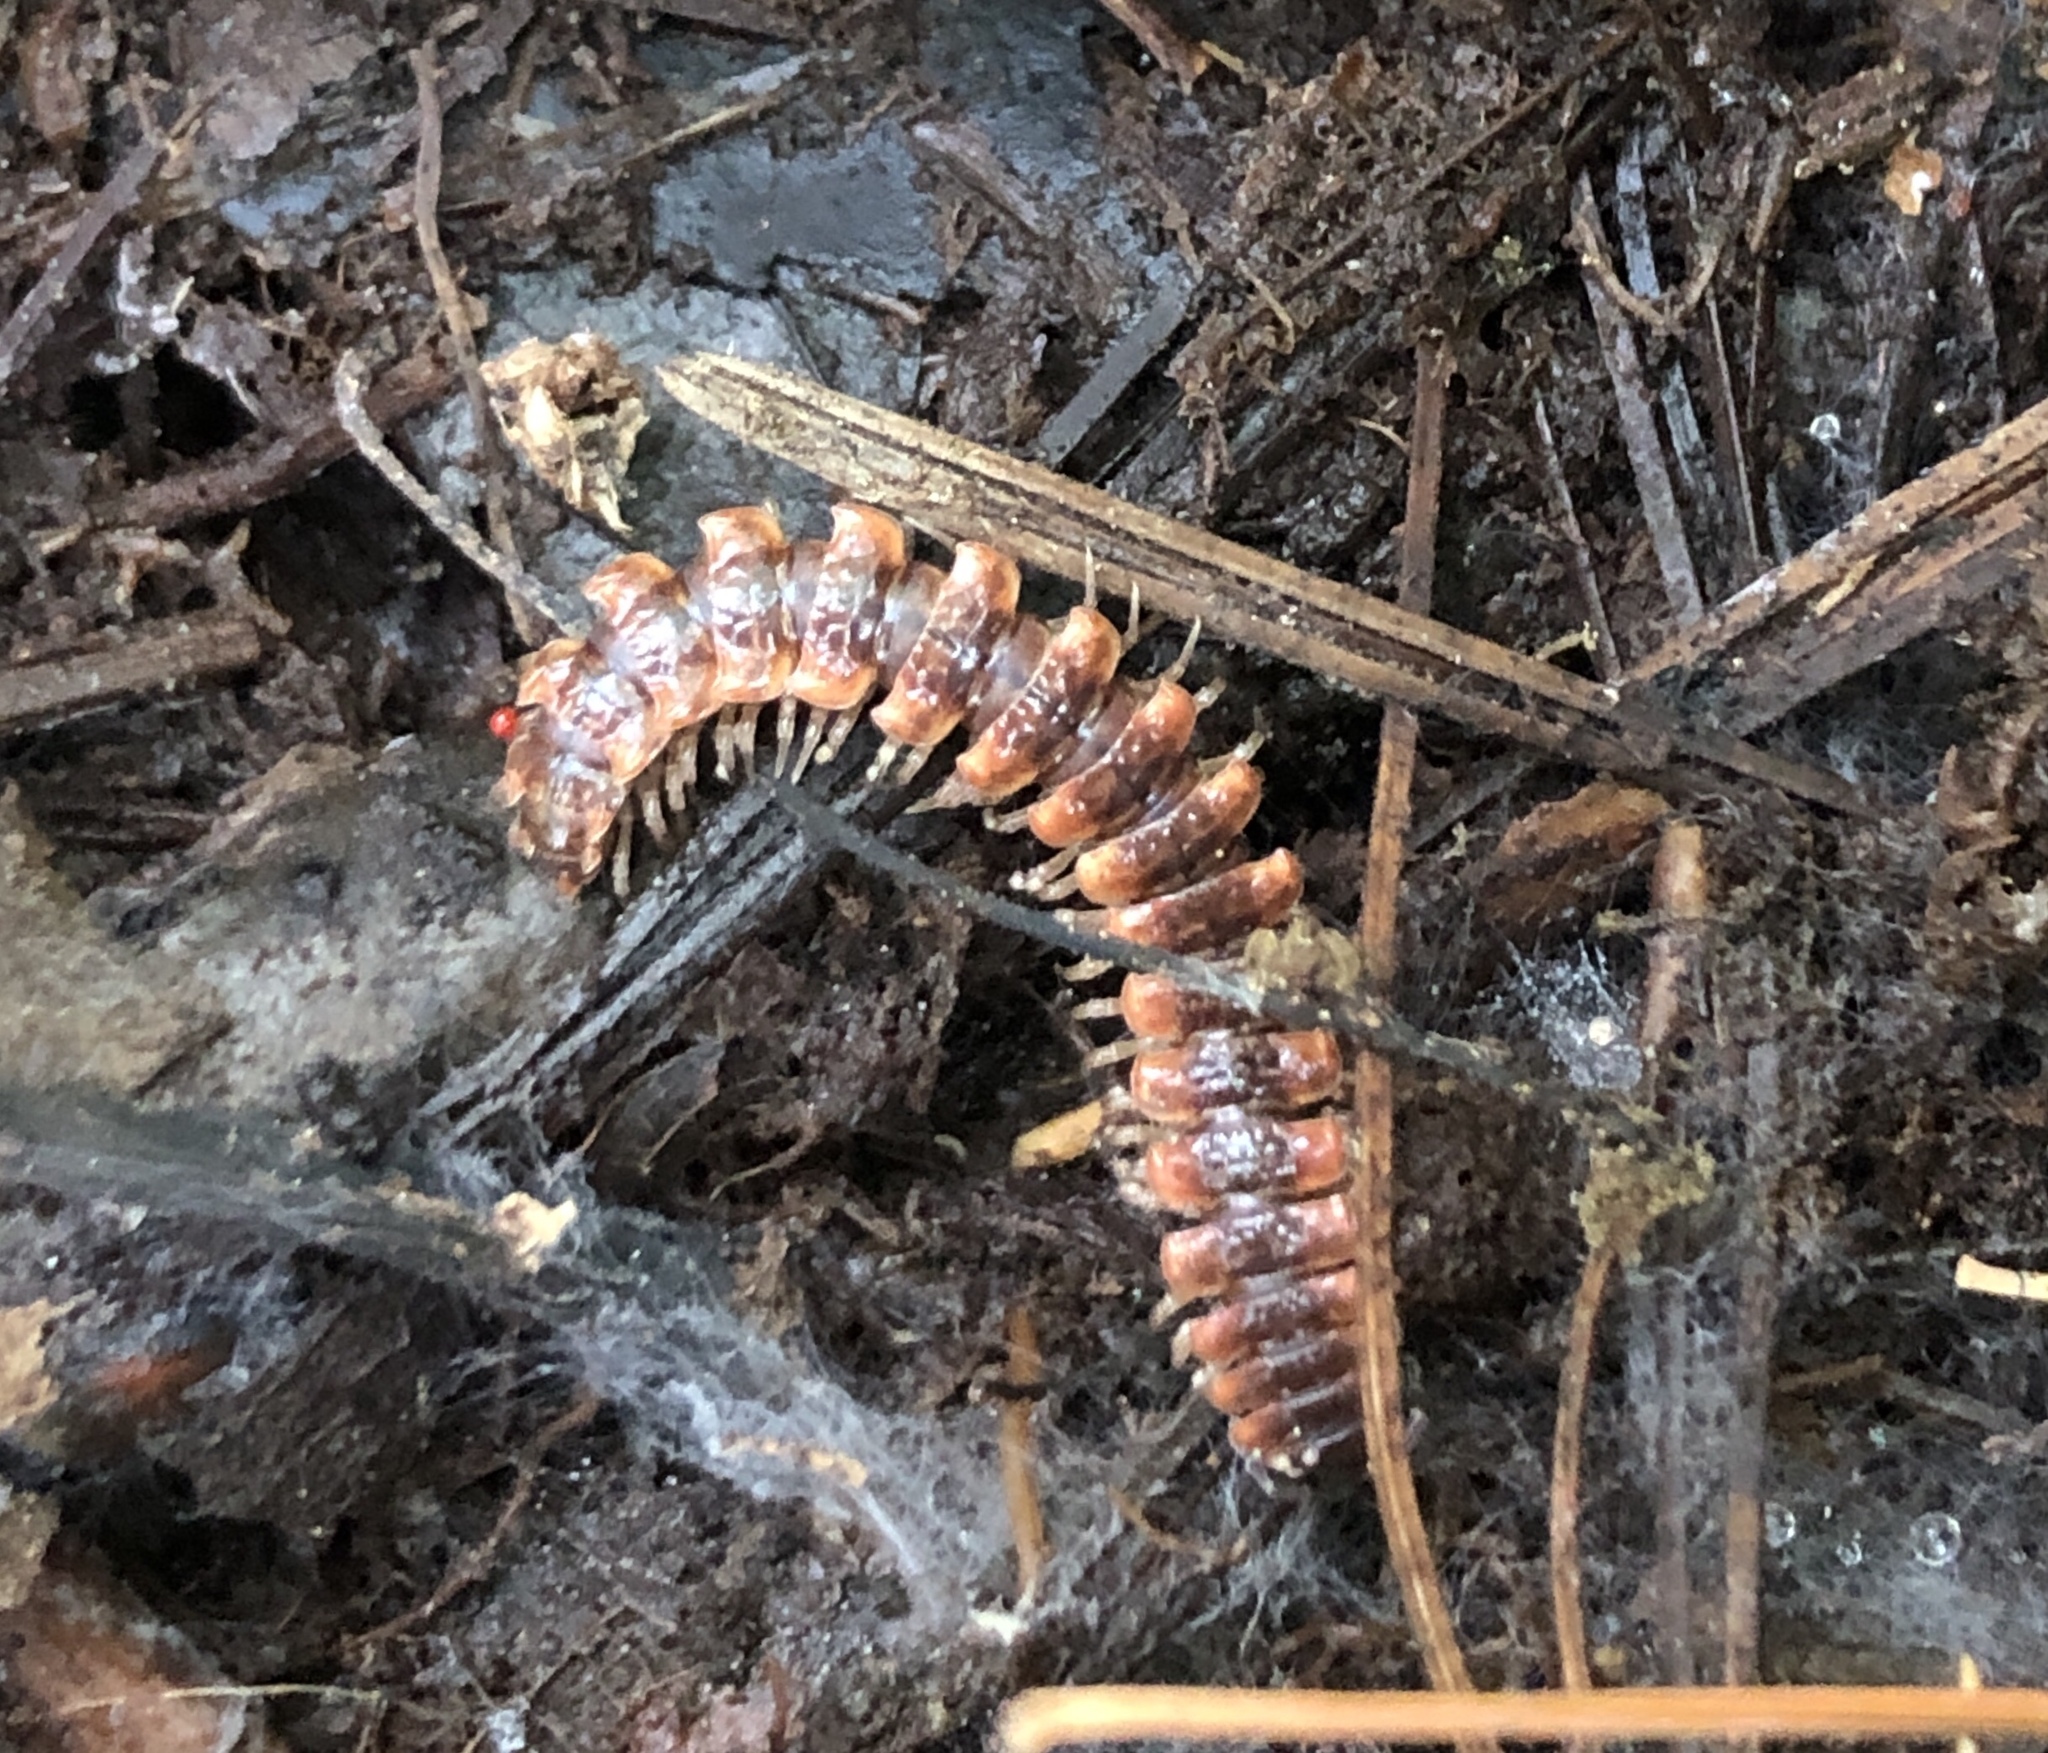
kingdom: Animalia
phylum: Arthropoda
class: Diplopoda
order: Polydesmida
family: Polydesmidae
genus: Pseudopolydesmus
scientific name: Pseudopolydesmus canadensis
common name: Canadian flat-back millipede
